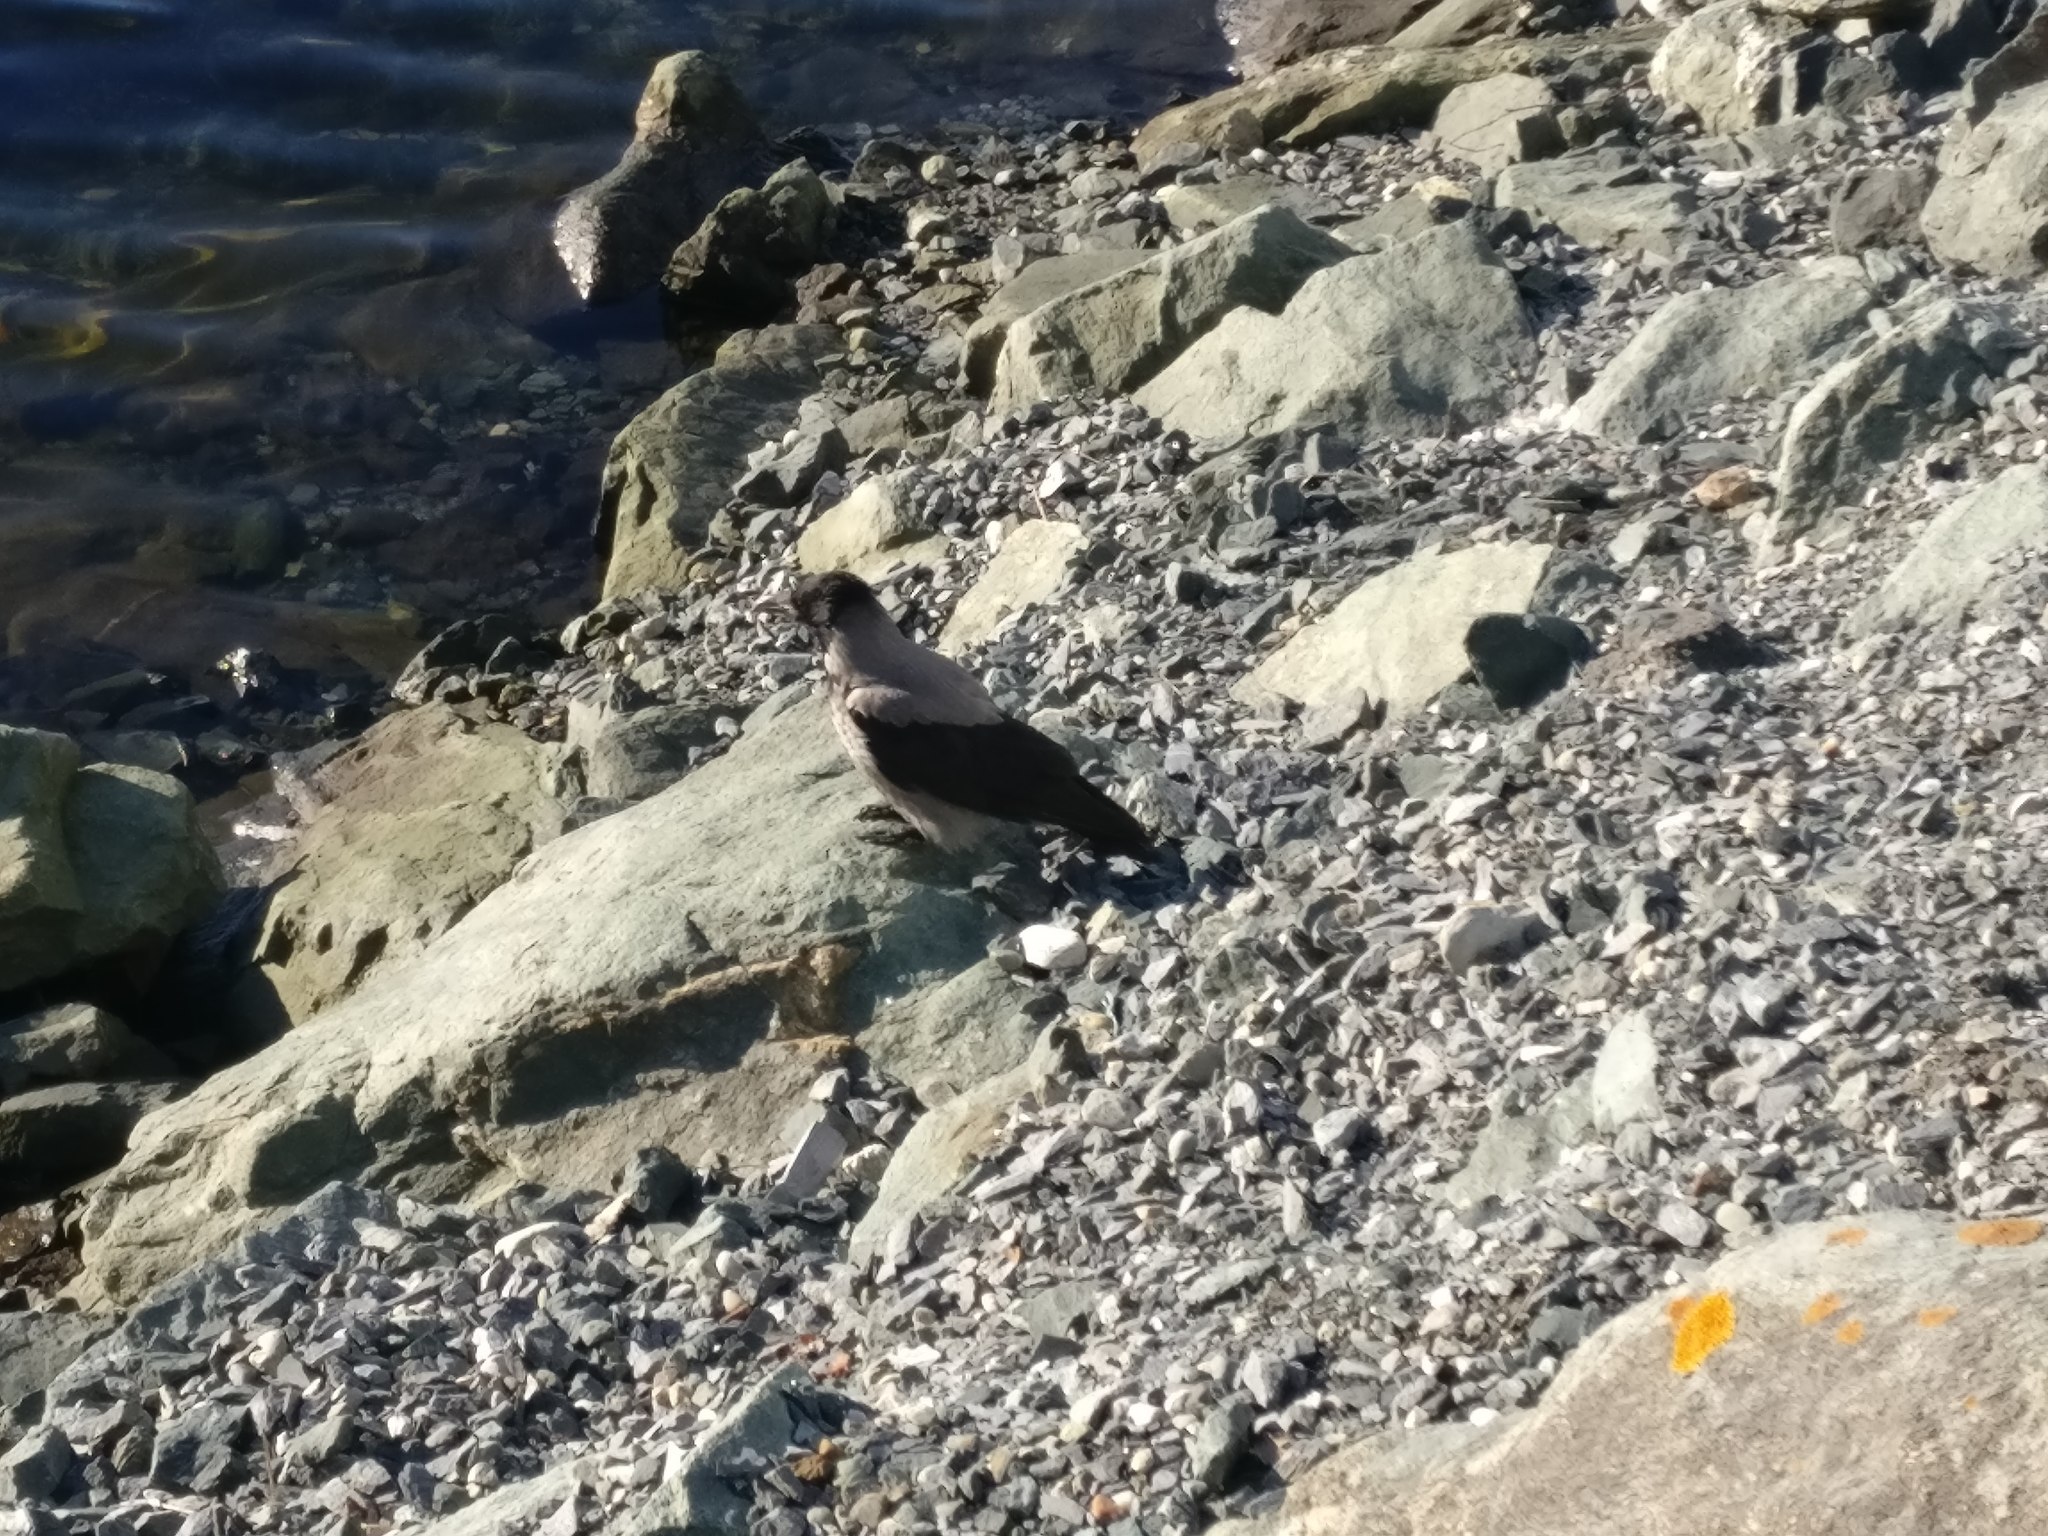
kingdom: Animalia
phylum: Chordata
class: Aves
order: Passeriformes
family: Corvidae
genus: Corvus
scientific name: Corvus cornix
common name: Hooded crow
